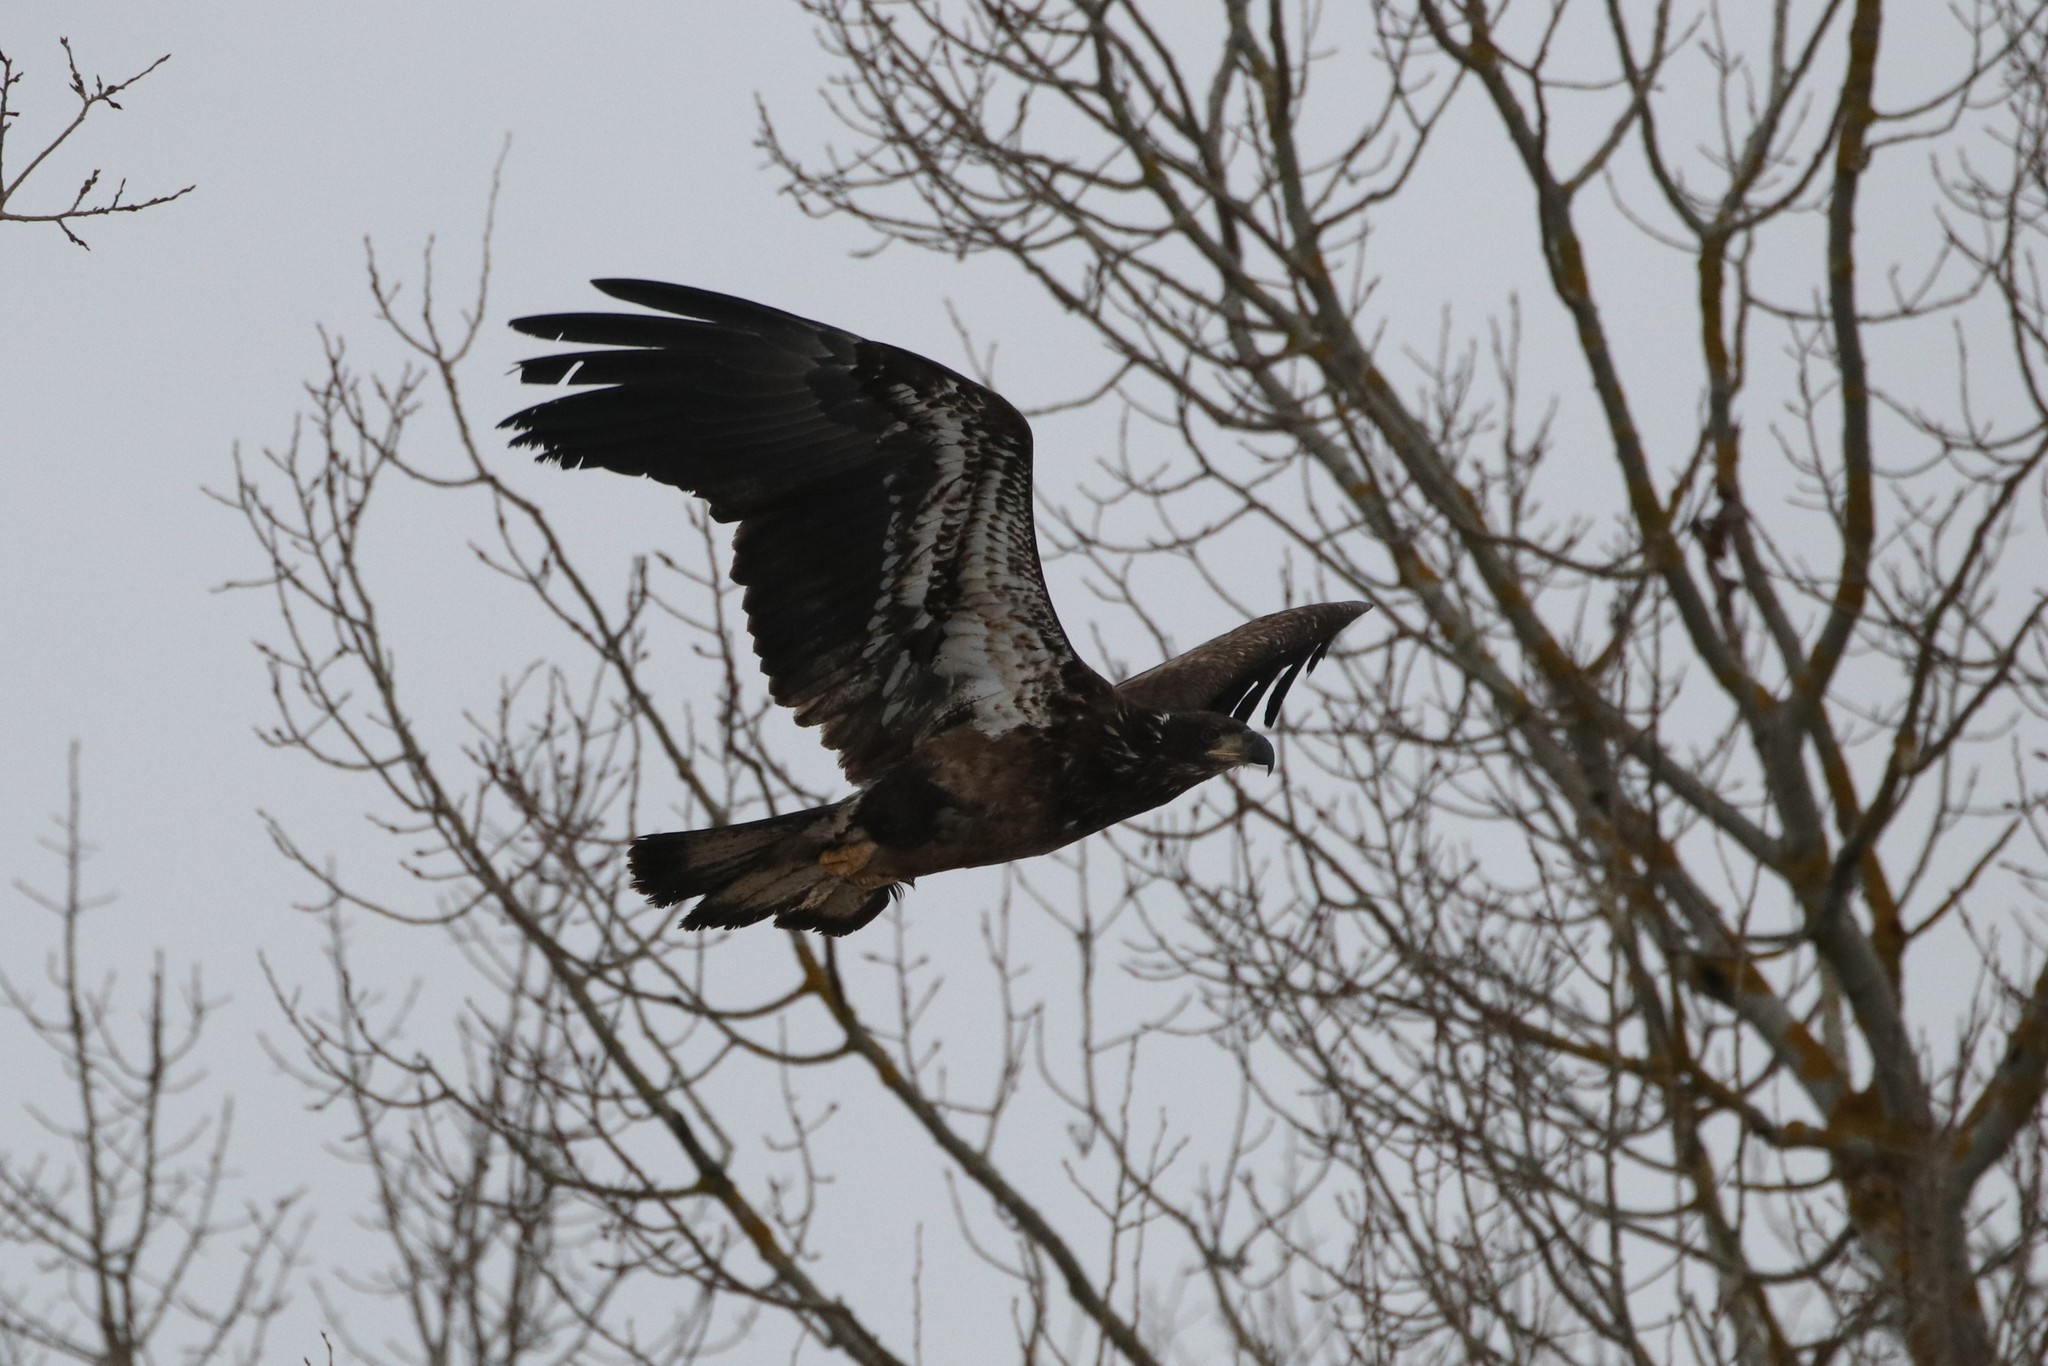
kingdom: Animalia
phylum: Chordata
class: Aves
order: Accipitriformes
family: Accipitridae
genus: Haliaeetus
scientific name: Haliaeetus leucocephalus
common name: Bald eagle
